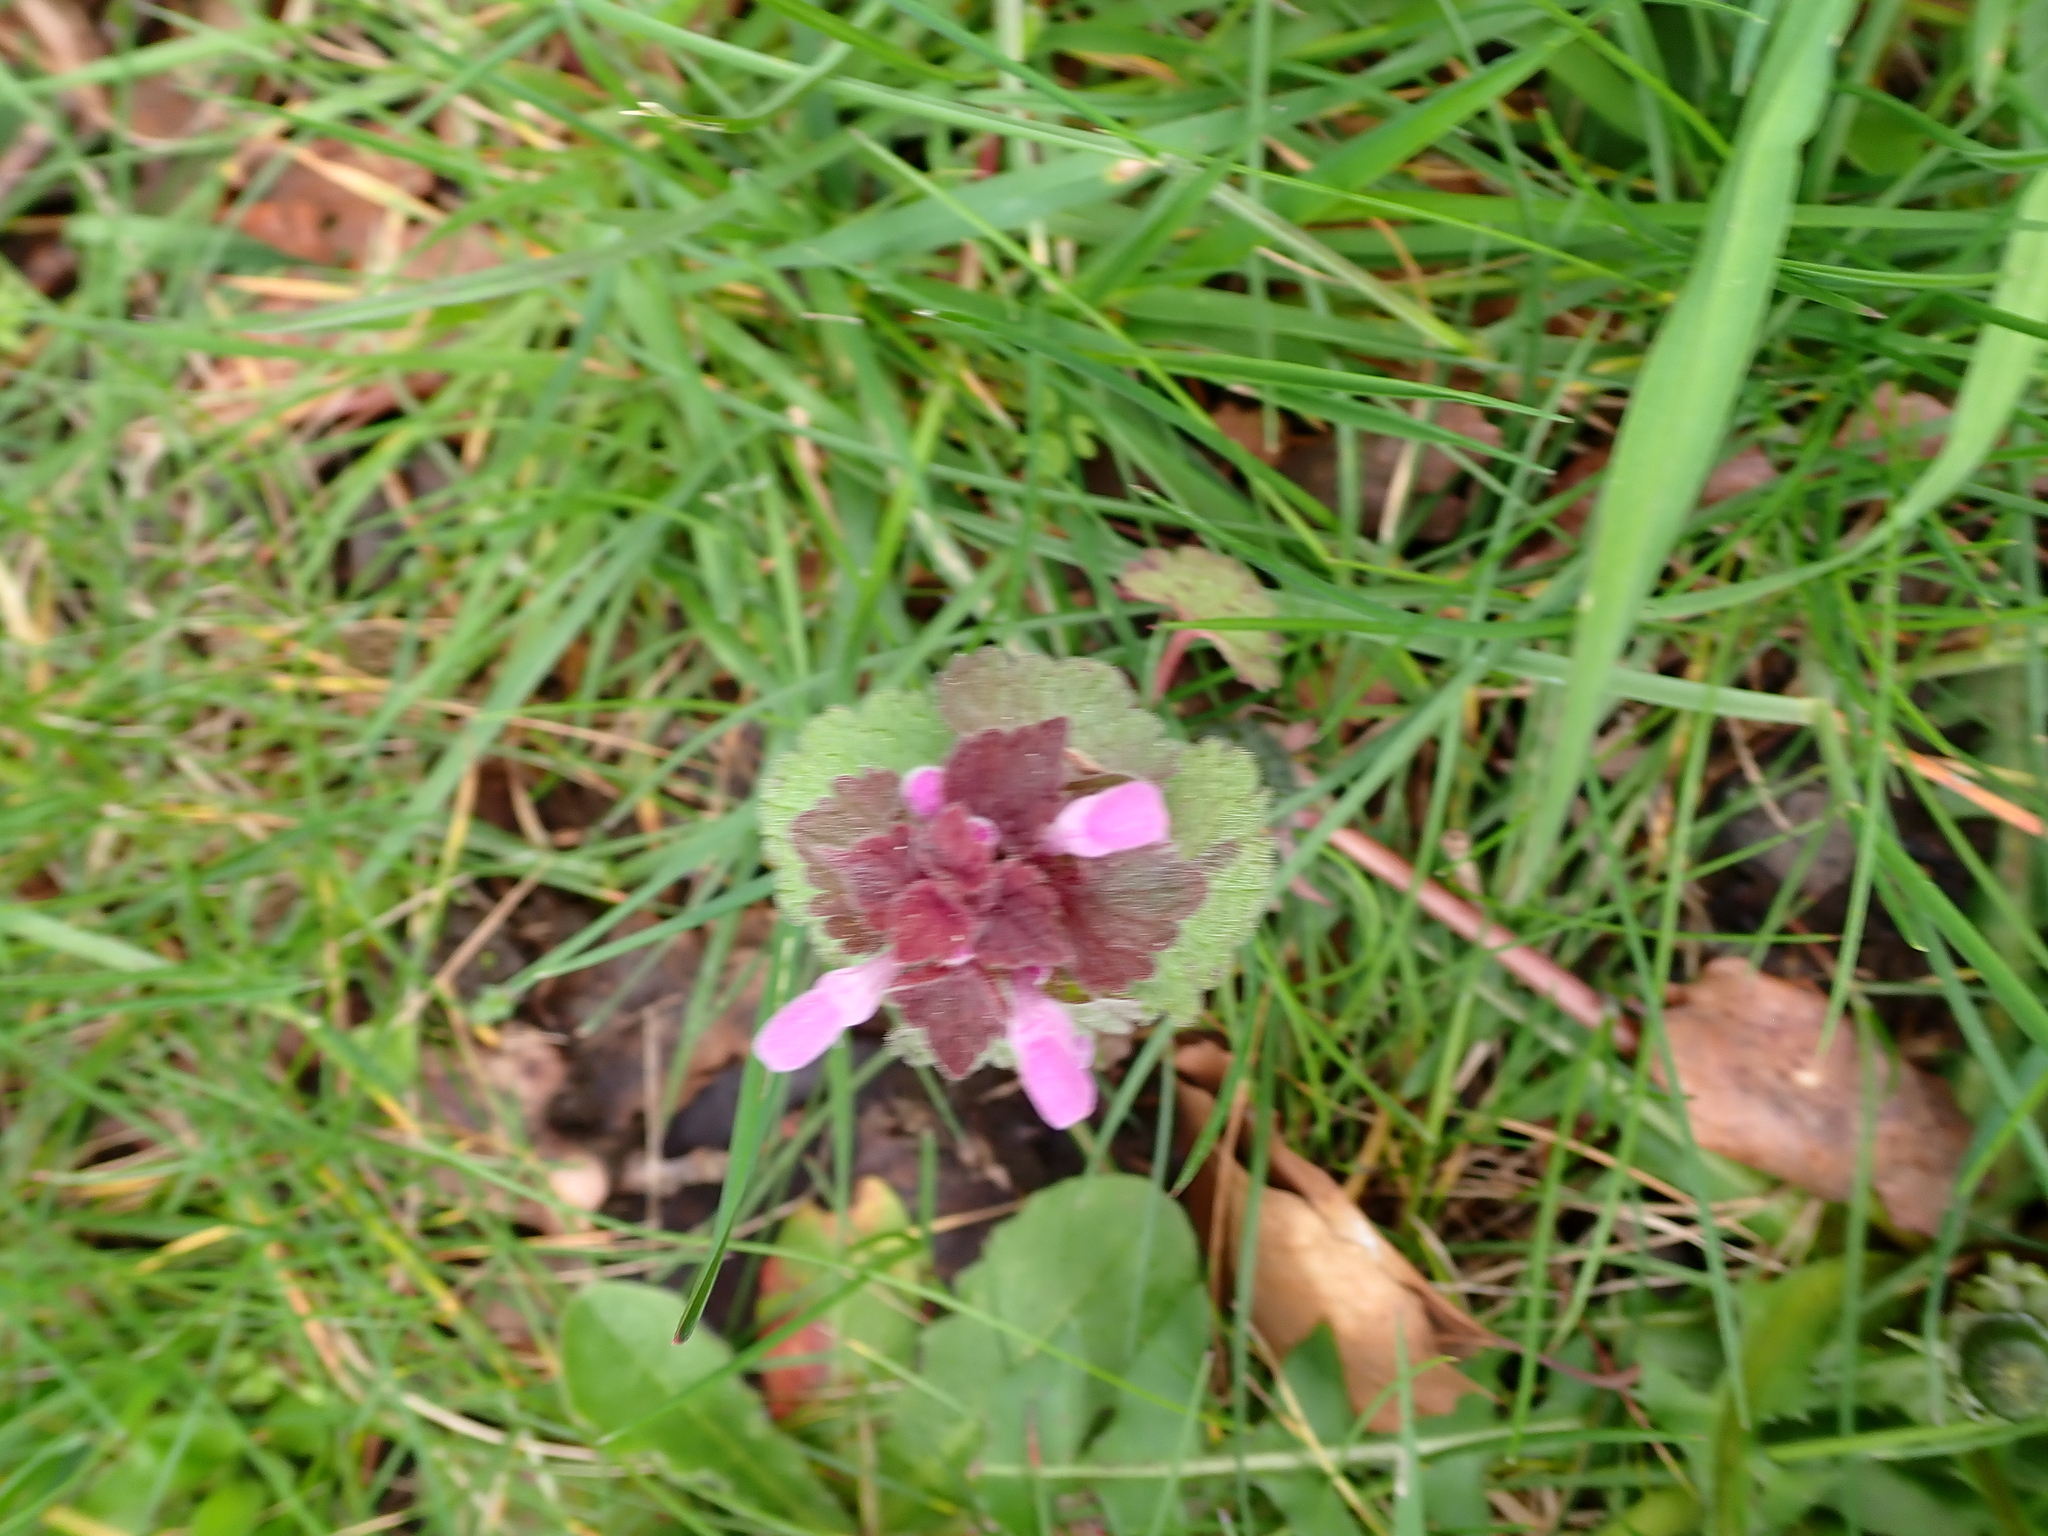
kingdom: Plantae
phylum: Tracheophyta
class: Magnoliopsida
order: Lamiales
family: Lamiaceae
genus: Lamium
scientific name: Lamium purpureum
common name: Red dead-nettle
